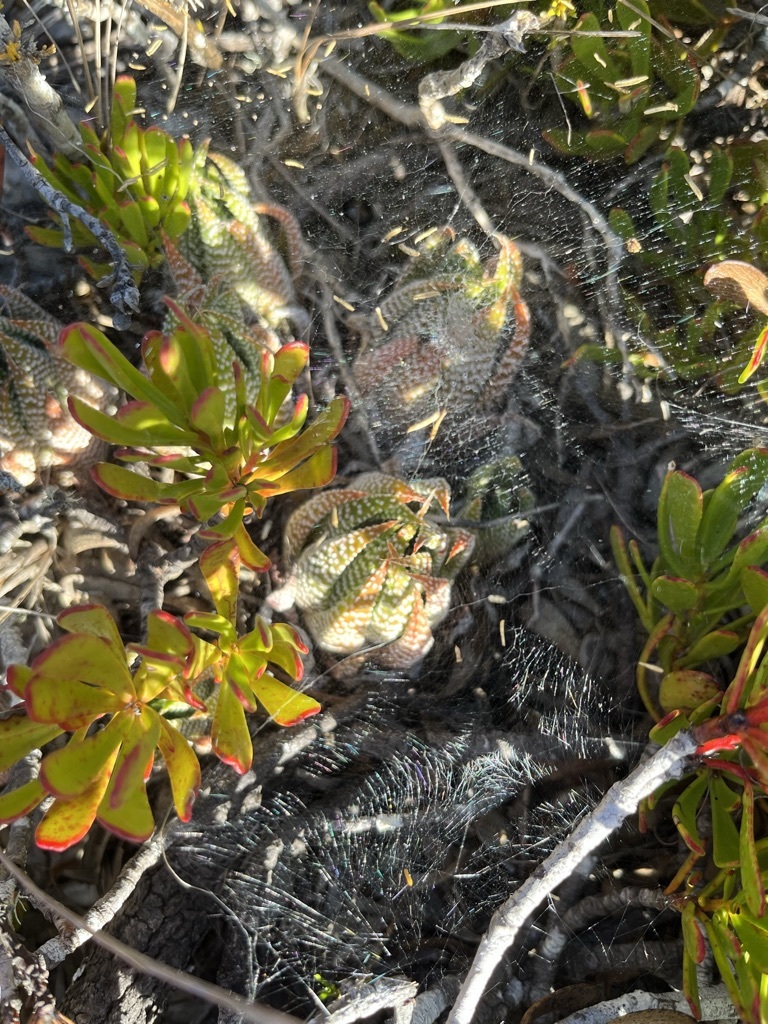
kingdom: Plantae
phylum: Tracheophyta
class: Liliopsida
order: Asparagales
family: Asphodelaceae
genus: Tulista
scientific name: Tulista minor
